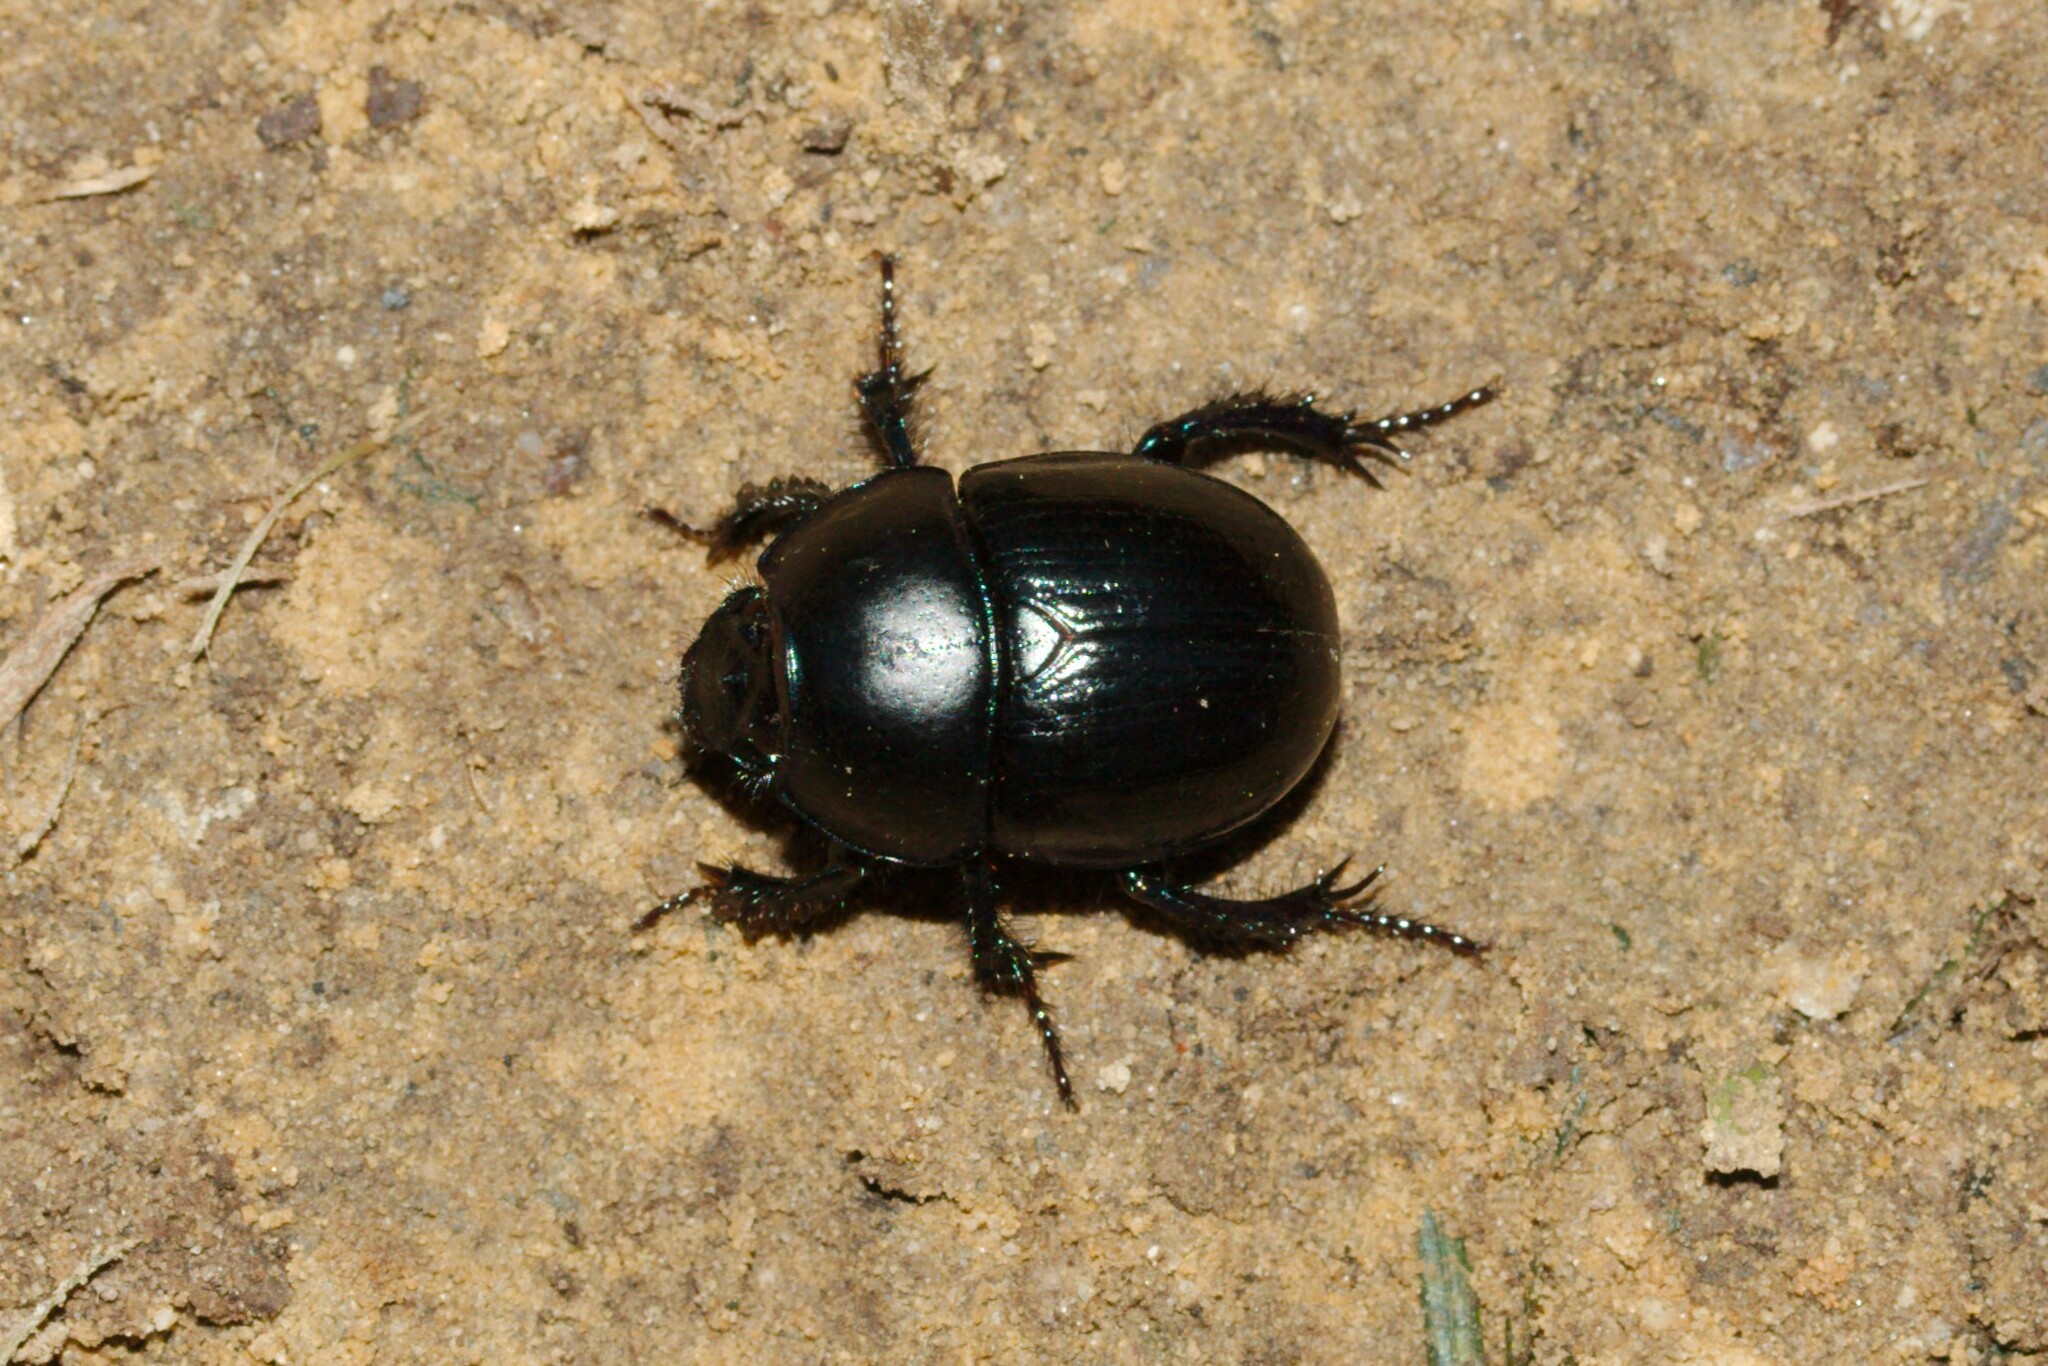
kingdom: Animalia
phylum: Arthropoda
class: Insecta
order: Coleoptera
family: Geotrupidae
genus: Anoplotrupes
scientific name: Anoplotrupes stercorosus
